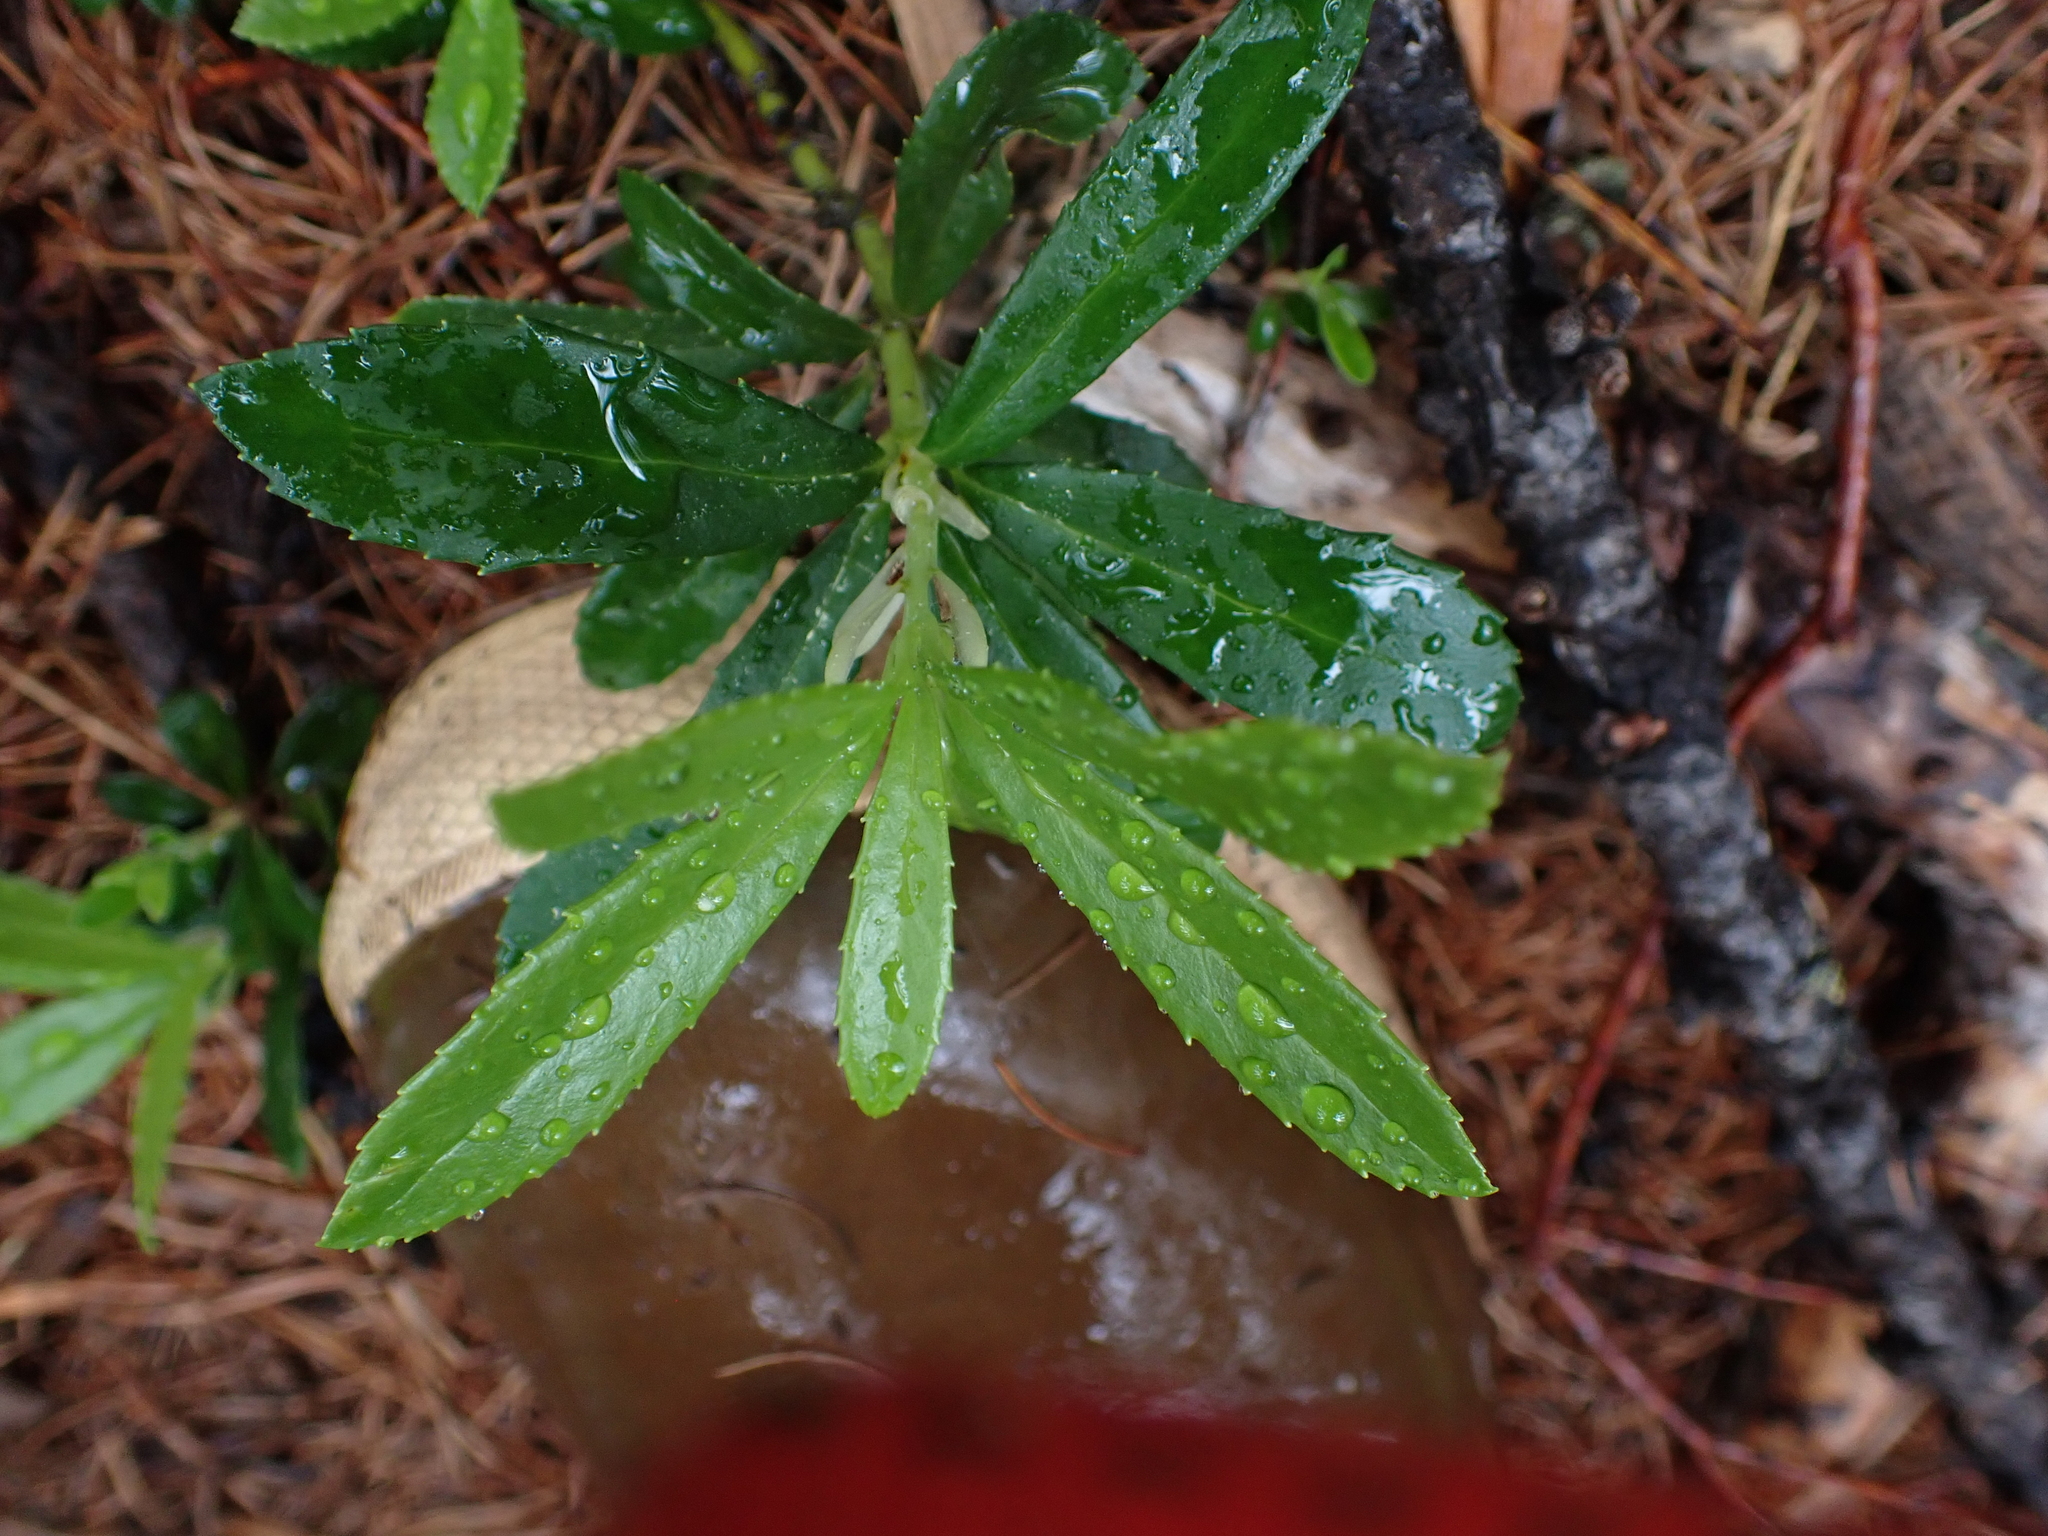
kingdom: Plantae
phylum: Tracheophyta
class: Magnoliopsida
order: Ericales
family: Ericaceae
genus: Chimaphila
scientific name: Chimaphila umbellata
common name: Pipsissewa
